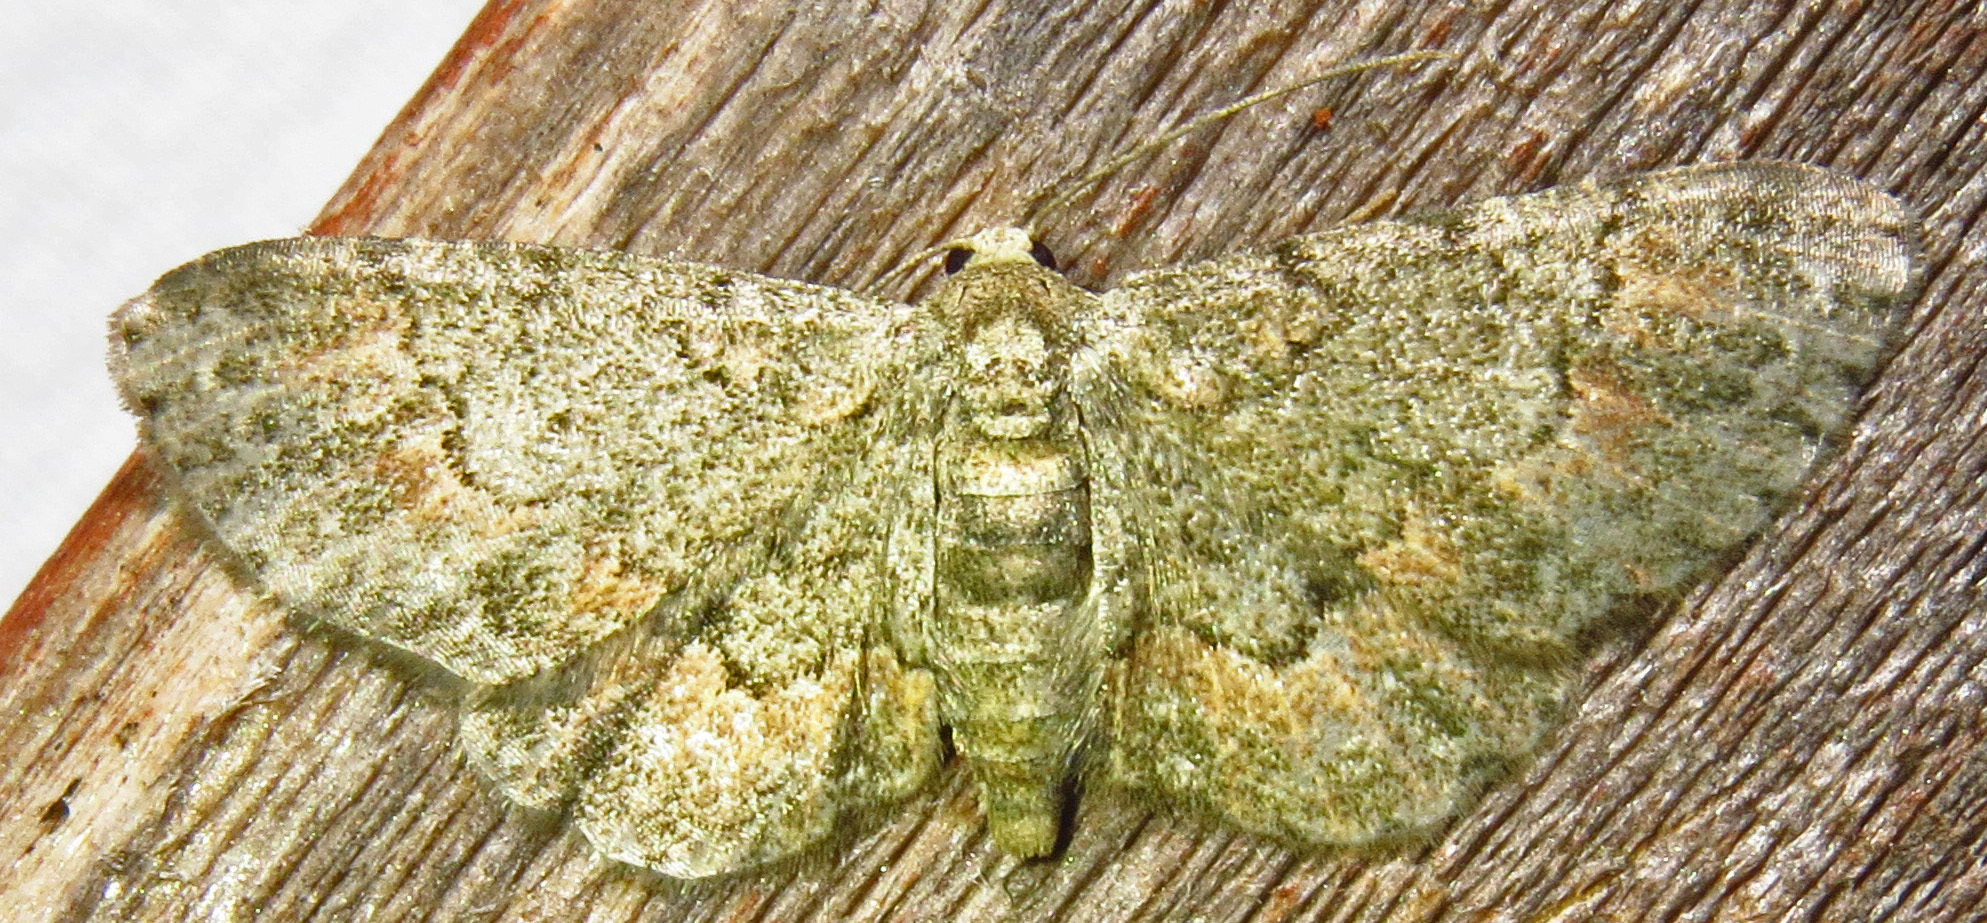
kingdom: Animalia
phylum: Arthropoda
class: Insecta
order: Lepidoptera
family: Geometridae
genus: Glenoides
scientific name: Glenoides texanaria
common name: Texas gray
